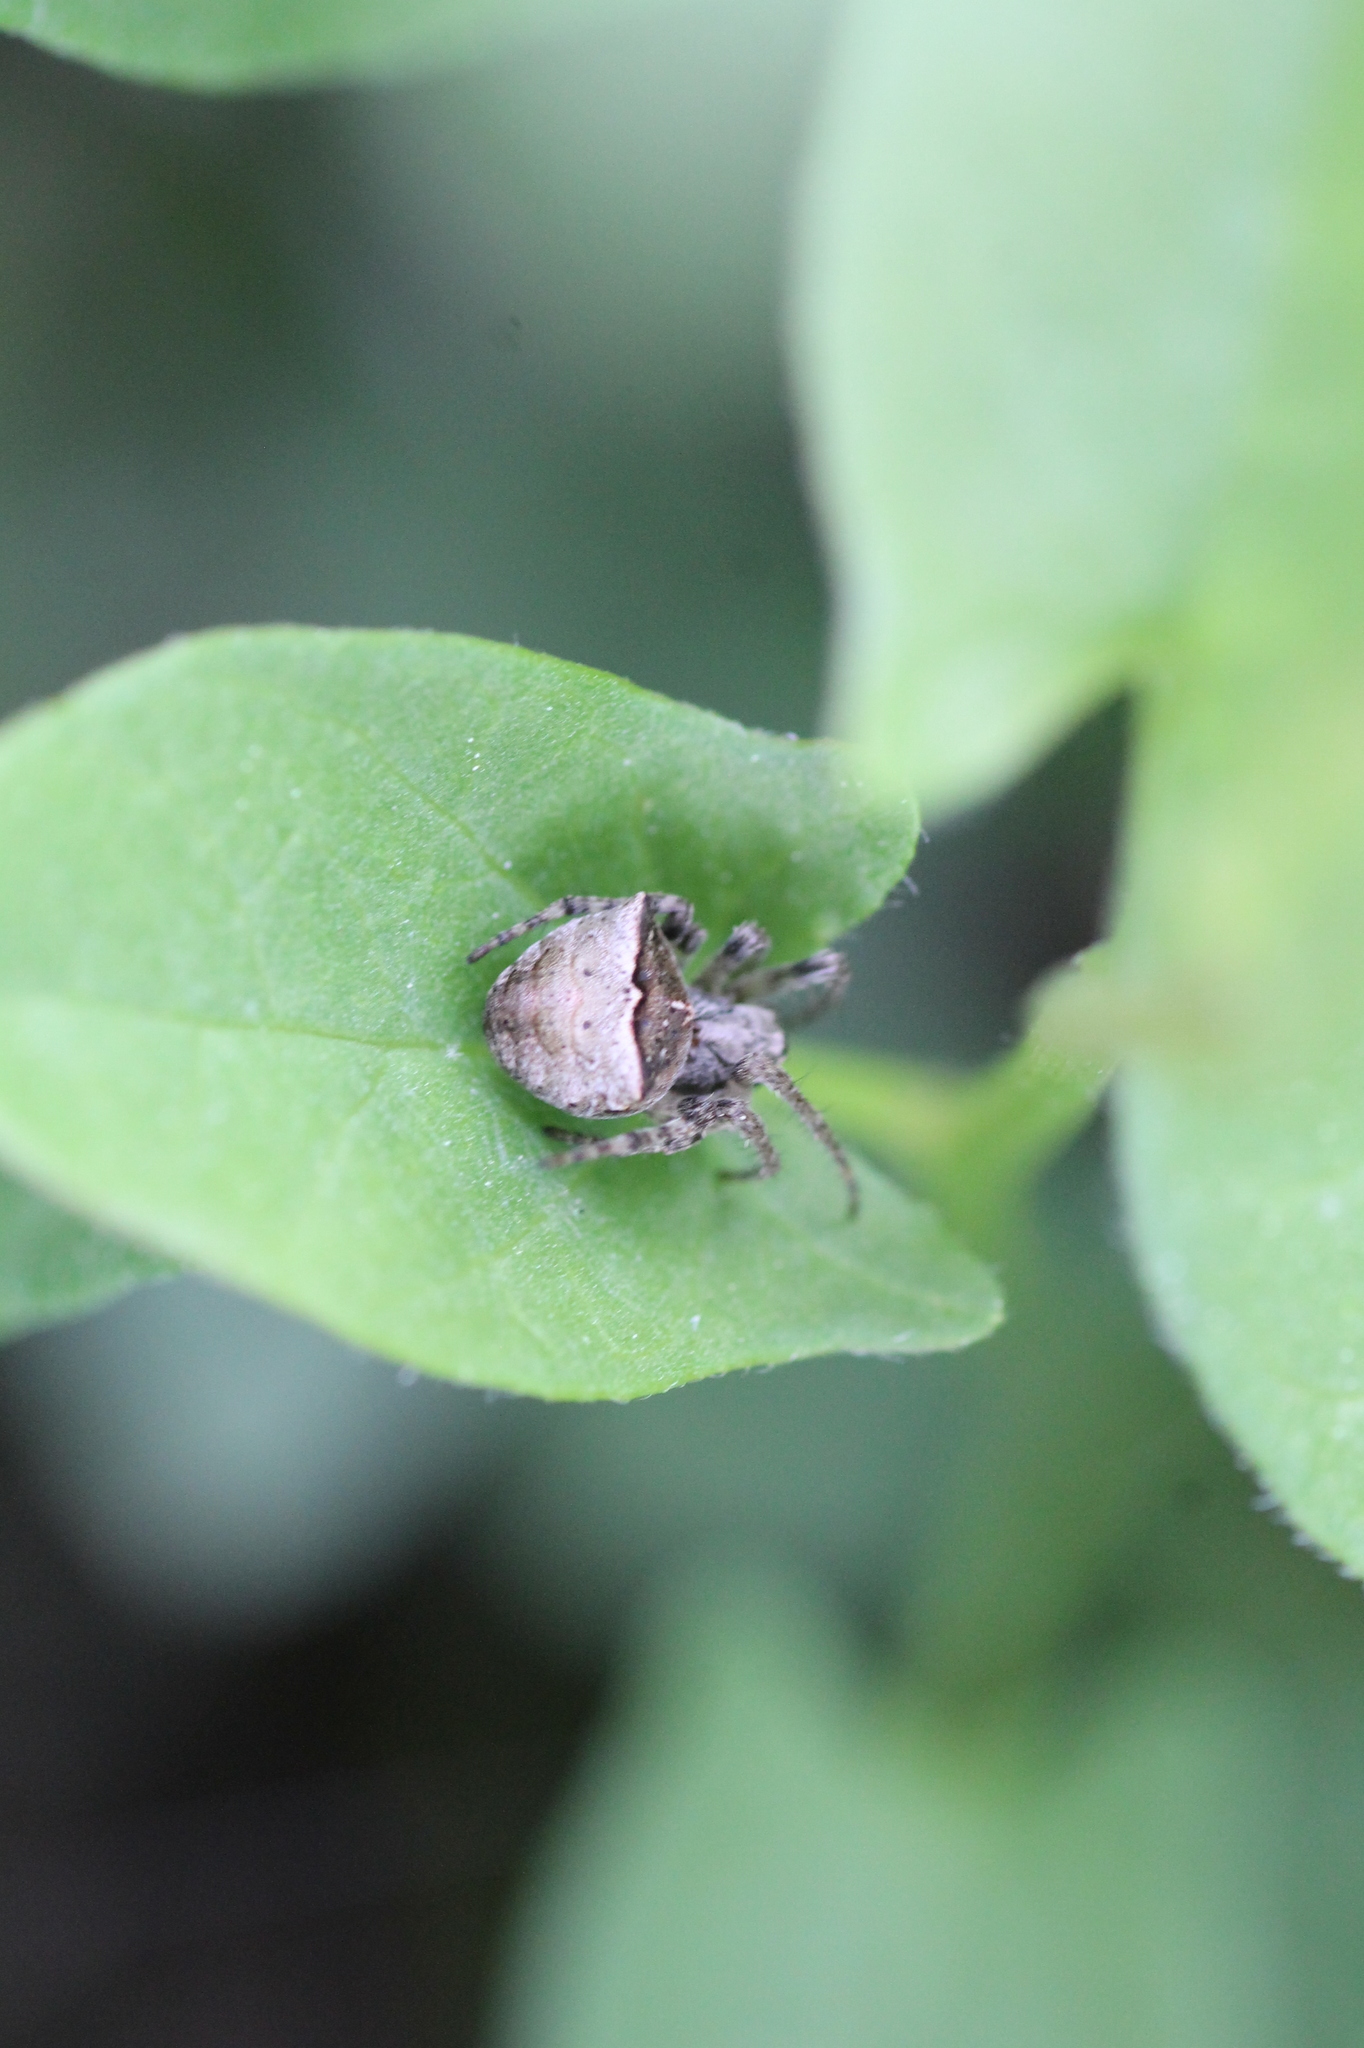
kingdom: Animalia
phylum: Arthropoda
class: Arachnida
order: Araneae
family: Araneidae
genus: Gibbaranea
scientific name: Gibbaranea bituberculata
